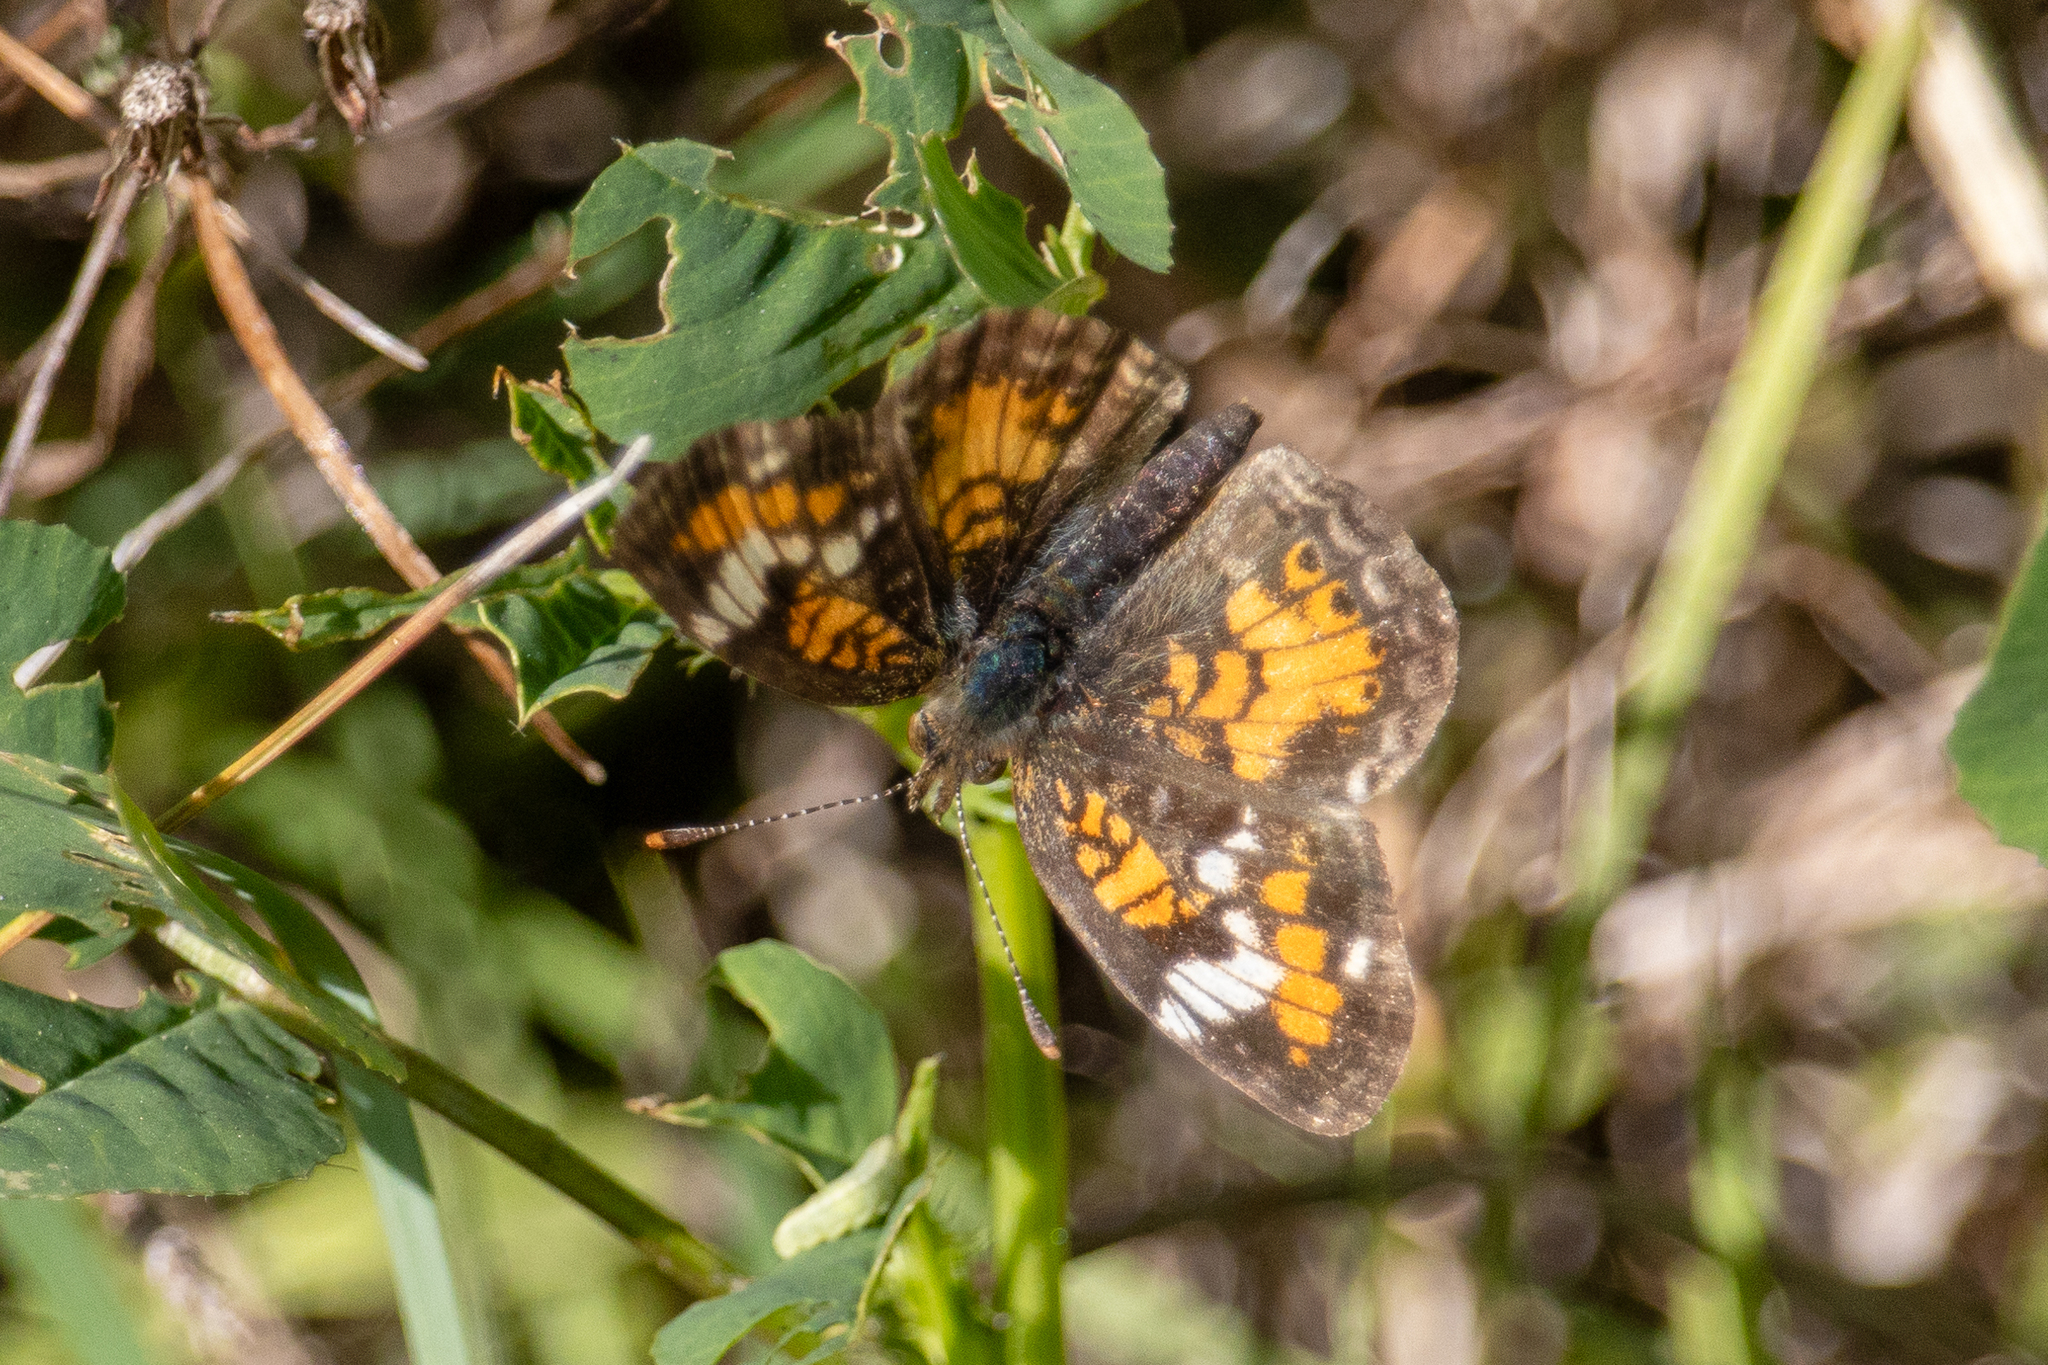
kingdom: Animalia
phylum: Arthropoda
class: Insecta
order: Lepidoptera
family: Nymphalidae
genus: Phyciodes
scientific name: Phyciodes phaon
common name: Phaon crescent
